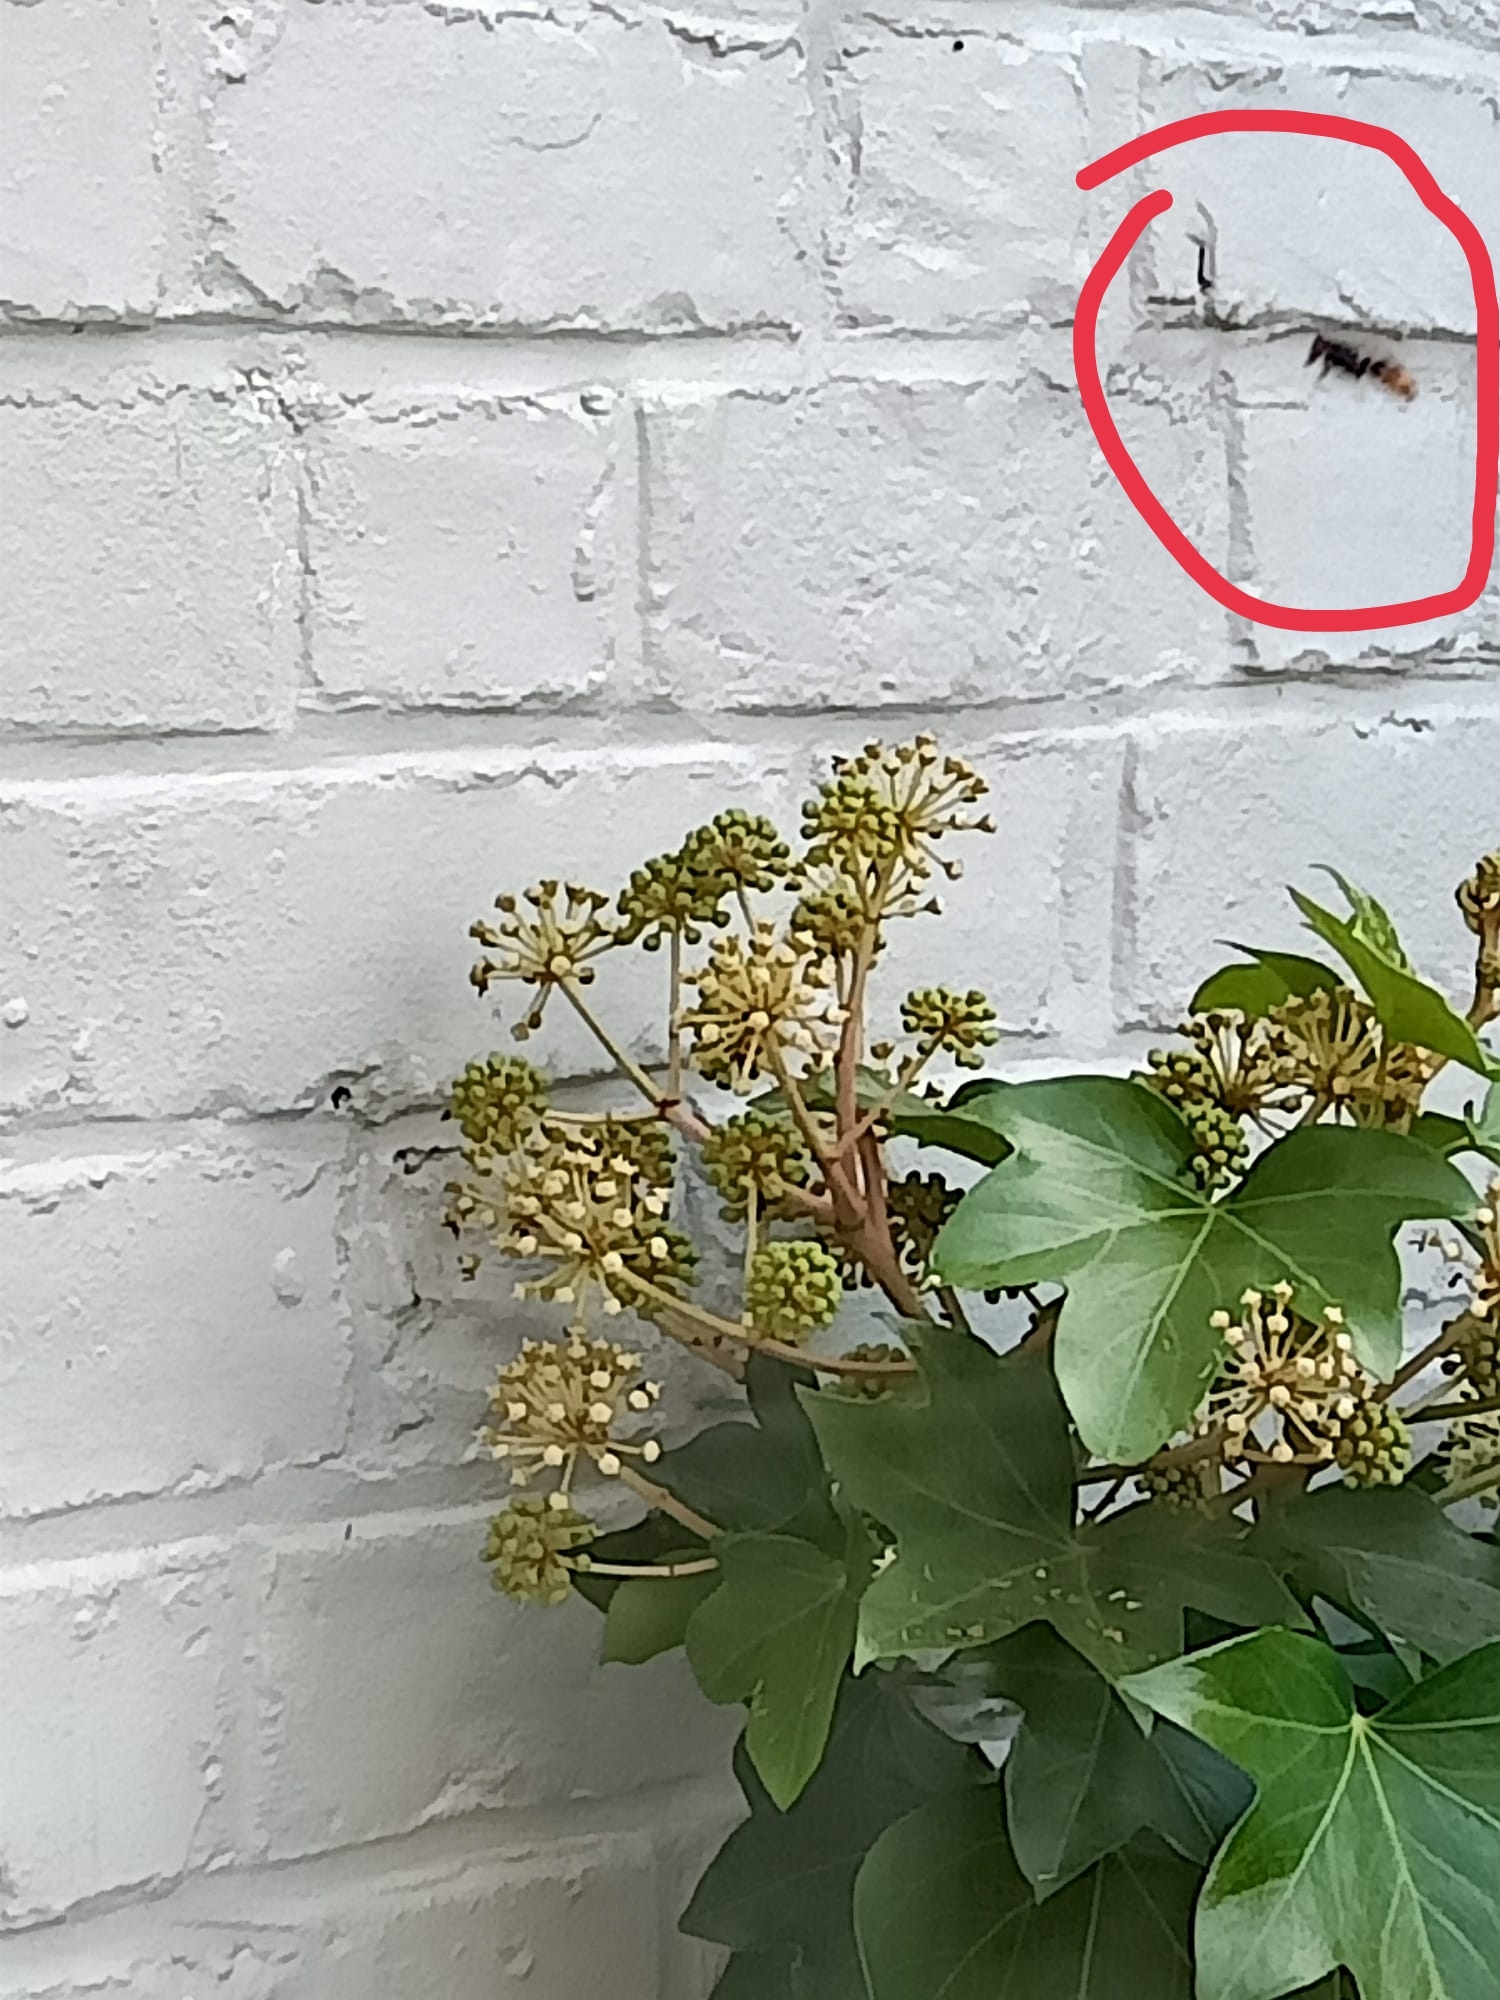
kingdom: Animalia
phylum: Arthropoda
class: Insecta
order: Hymenoptera
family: Vespidae
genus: Vespa
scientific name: Vespa velutina
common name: Asian hornet
